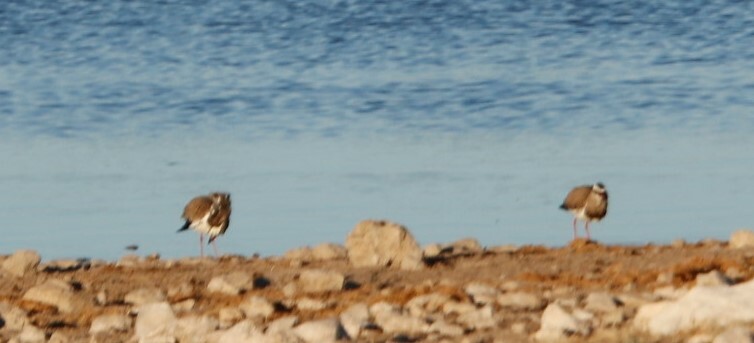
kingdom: Animalia
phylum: Chordata
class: Aves
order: Charadriiformes
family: Charadriidae
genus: Vanellus
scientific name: Vanellus coronatus
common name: Crowned lapwing
